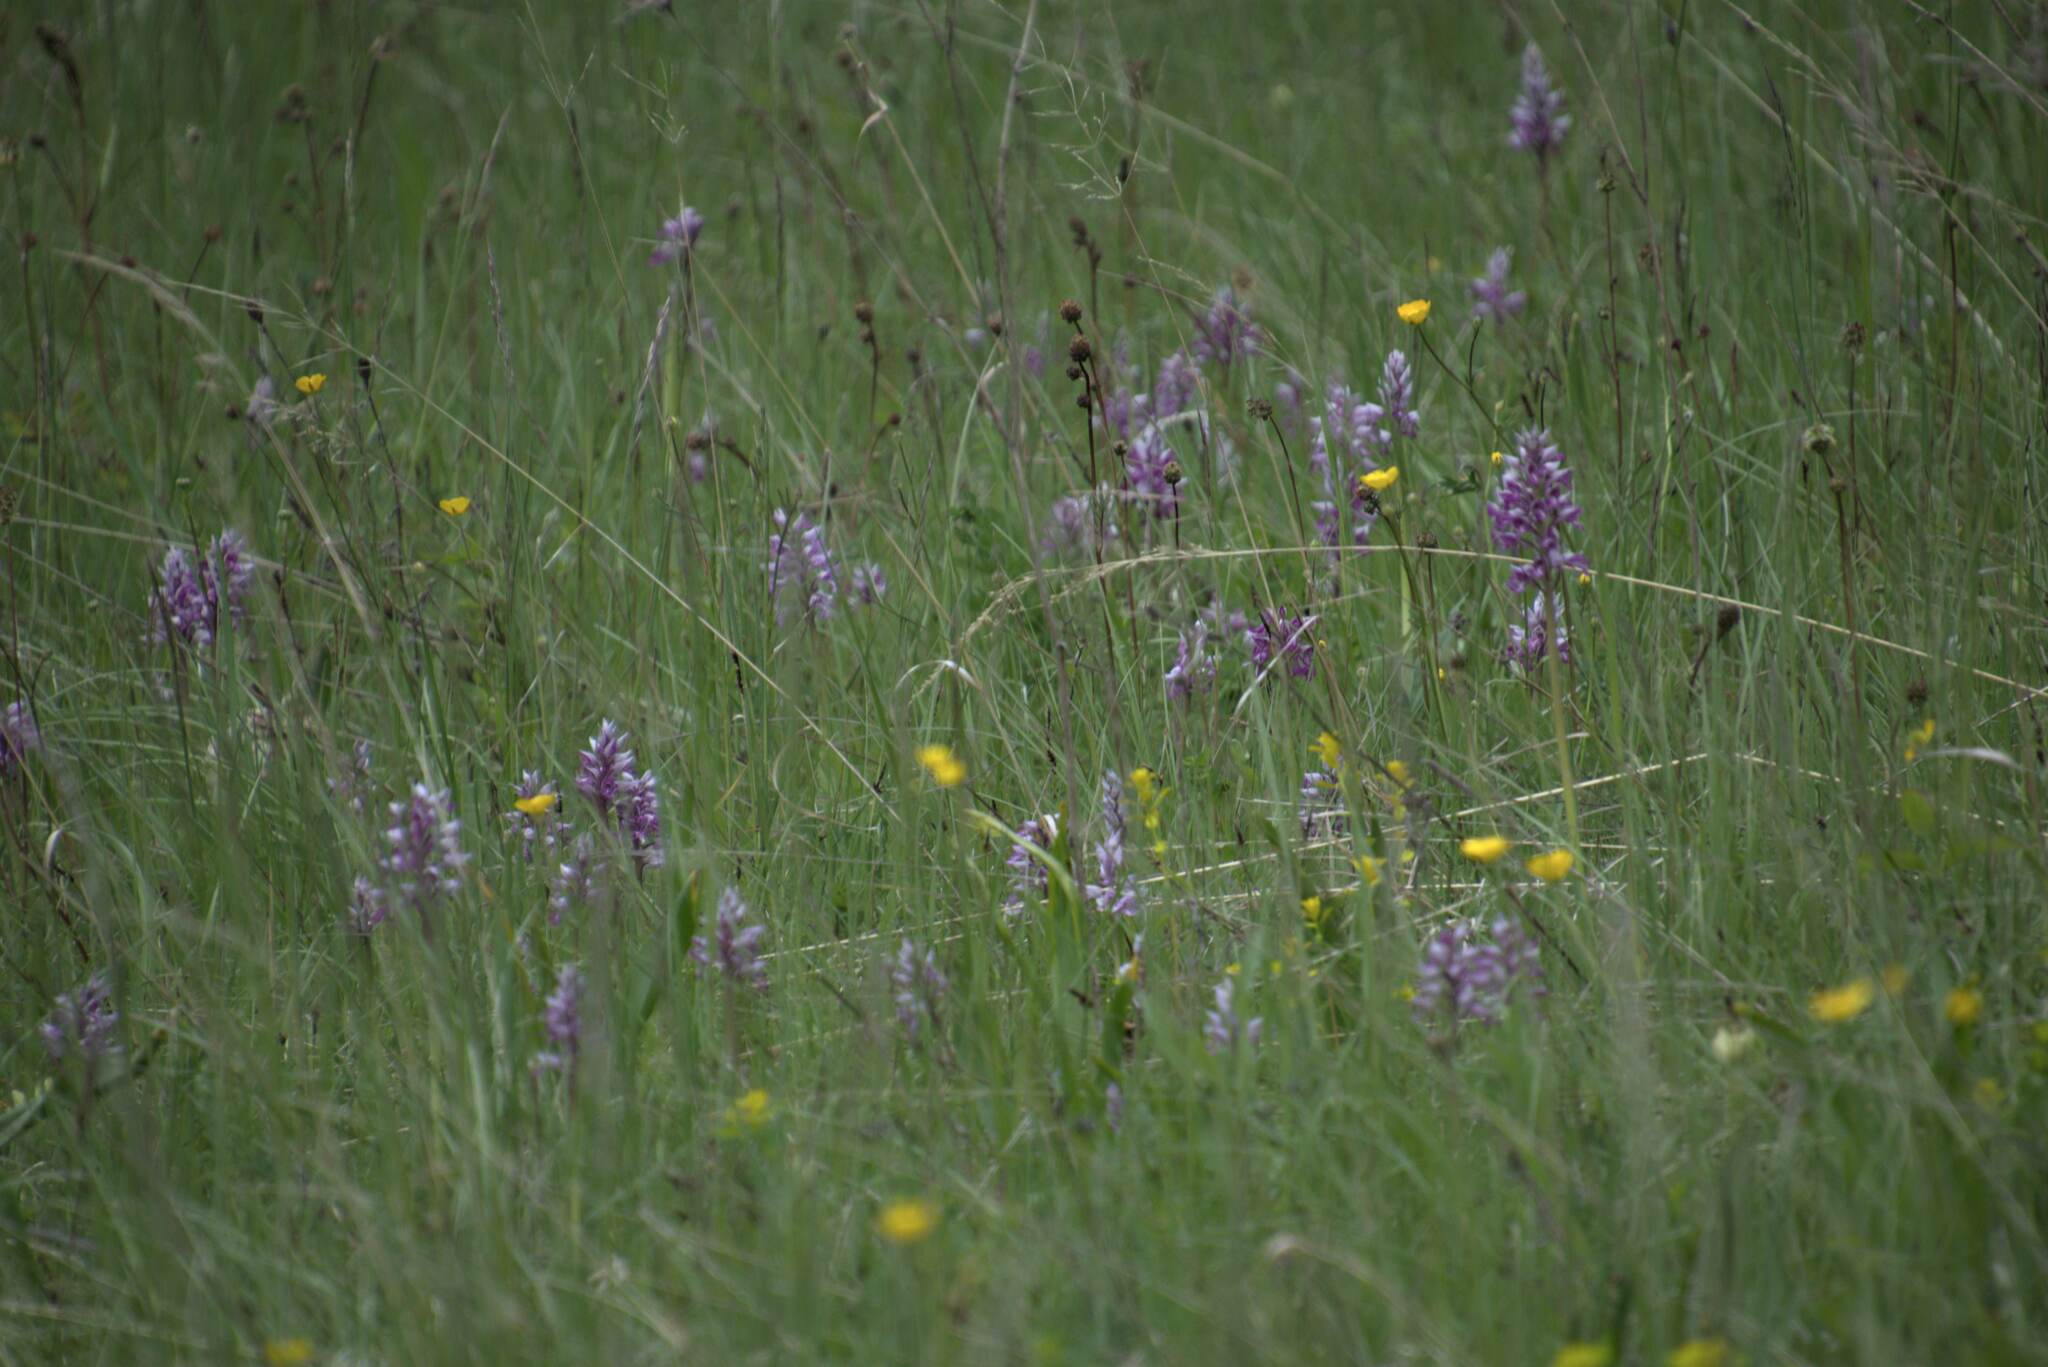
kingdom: Plantae
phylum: Tracheophyta
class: Liliopsida
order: Asparagales
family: Orchidaceae
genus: Orchis
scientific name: Orchis militaris
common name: Military orchid
